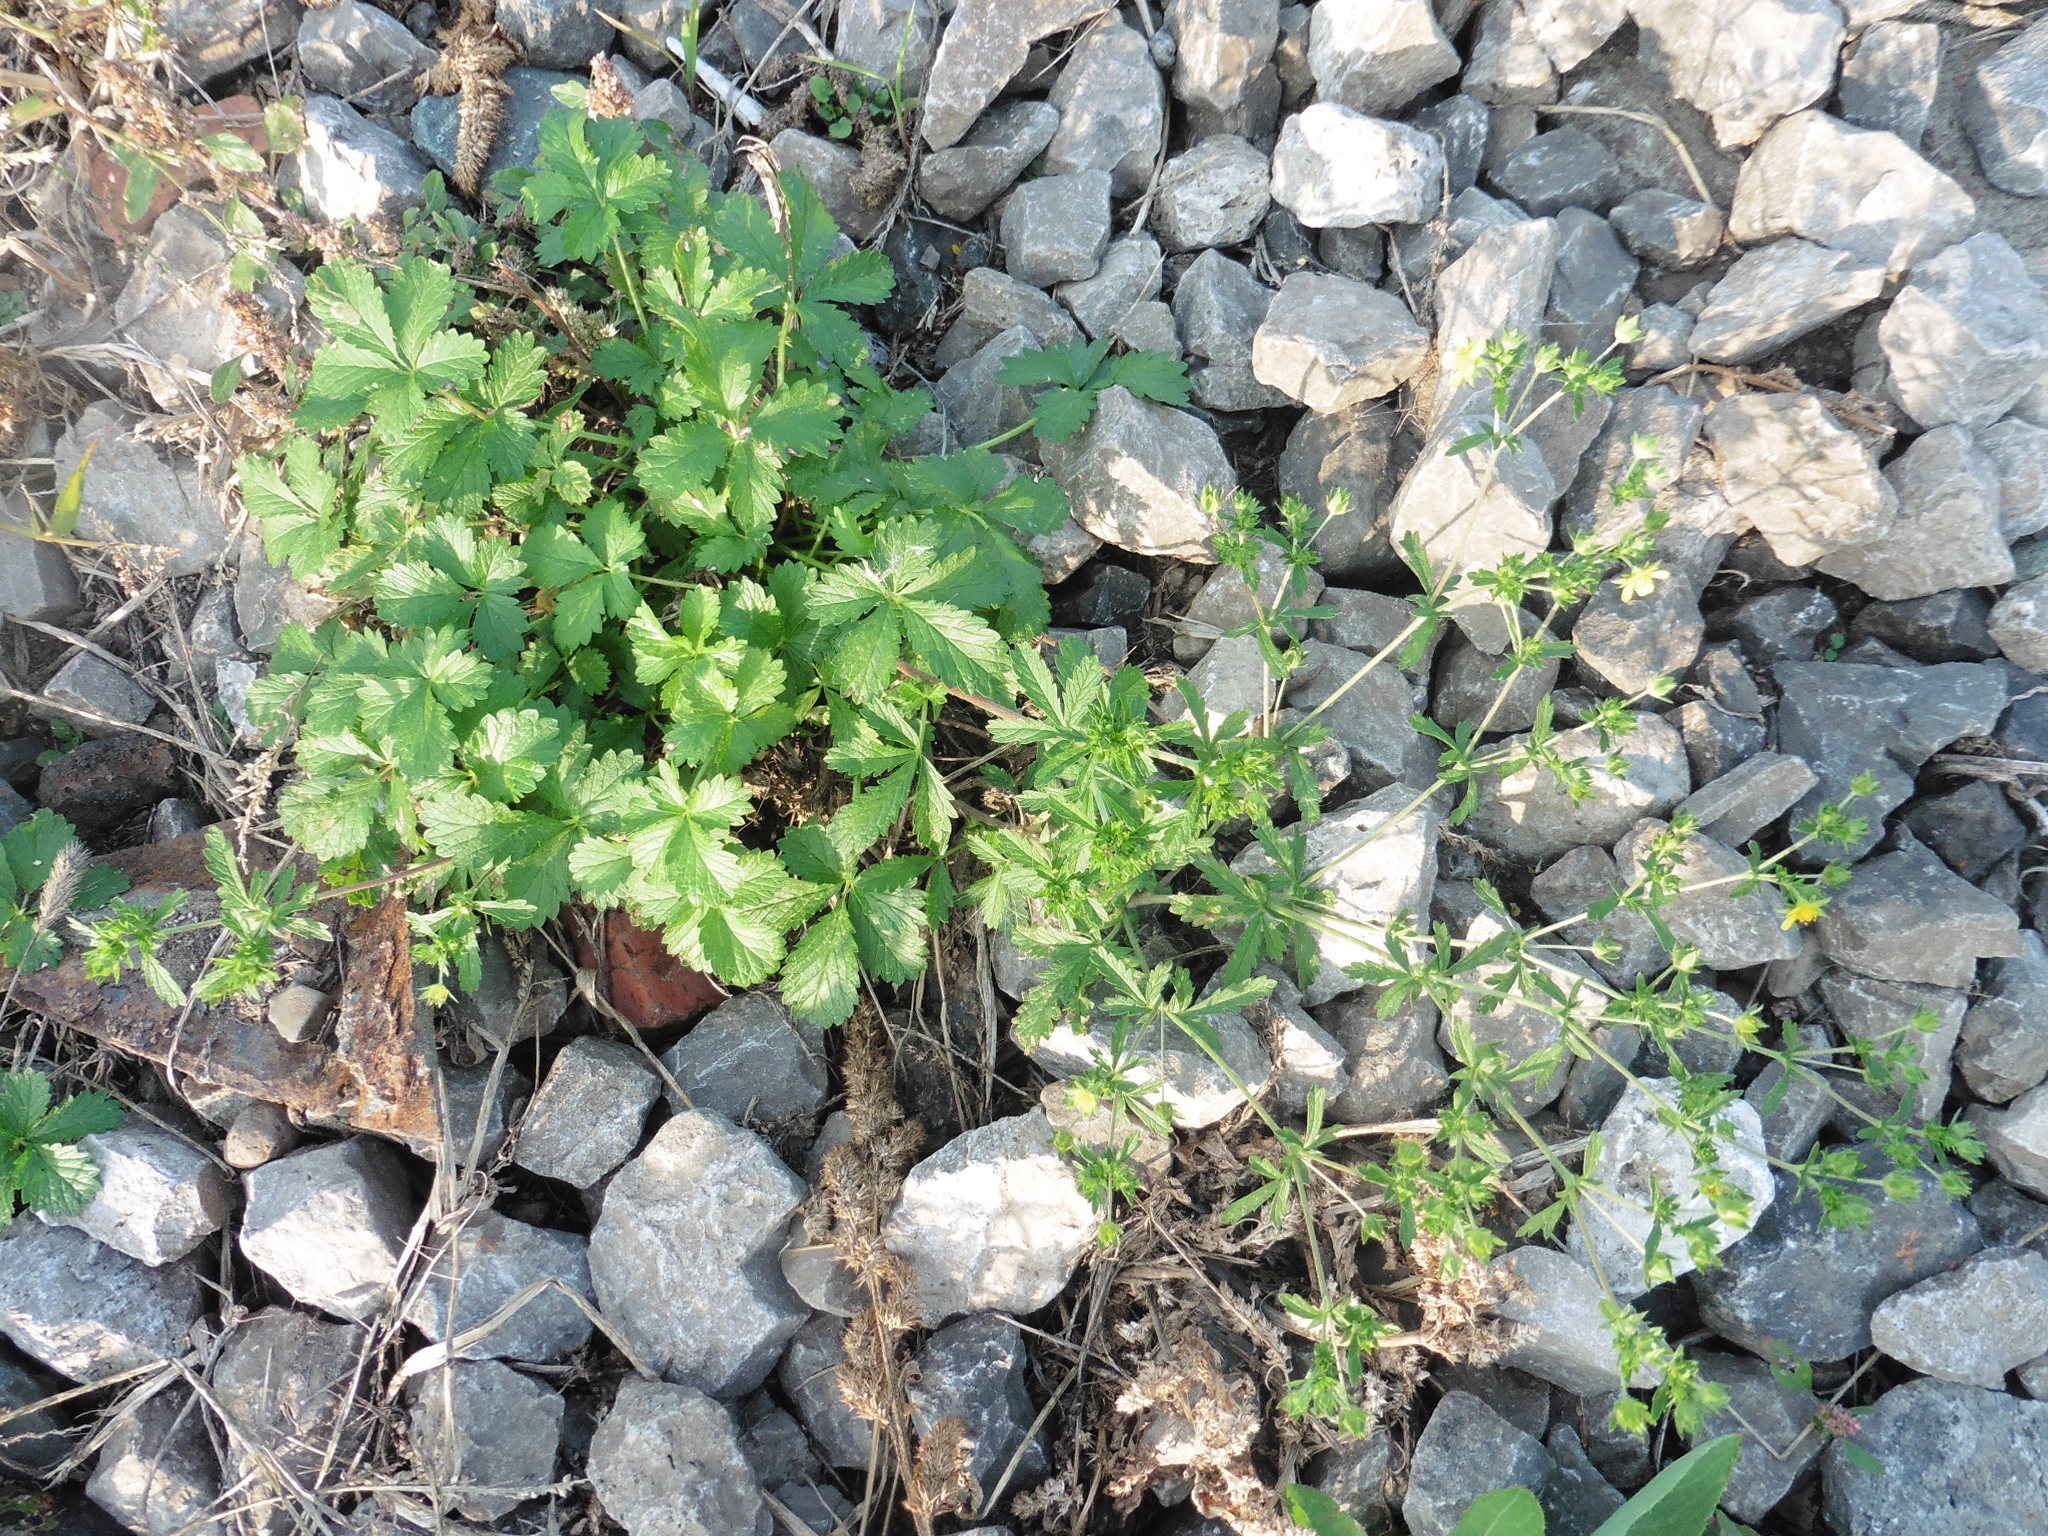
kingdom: Plantae
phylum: Tracheophyta
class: Magnoliopsida
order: Rosales
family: Rosaceae
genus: Potentilla
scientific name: Potentilla intermedia
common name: Downy cinquefoil
